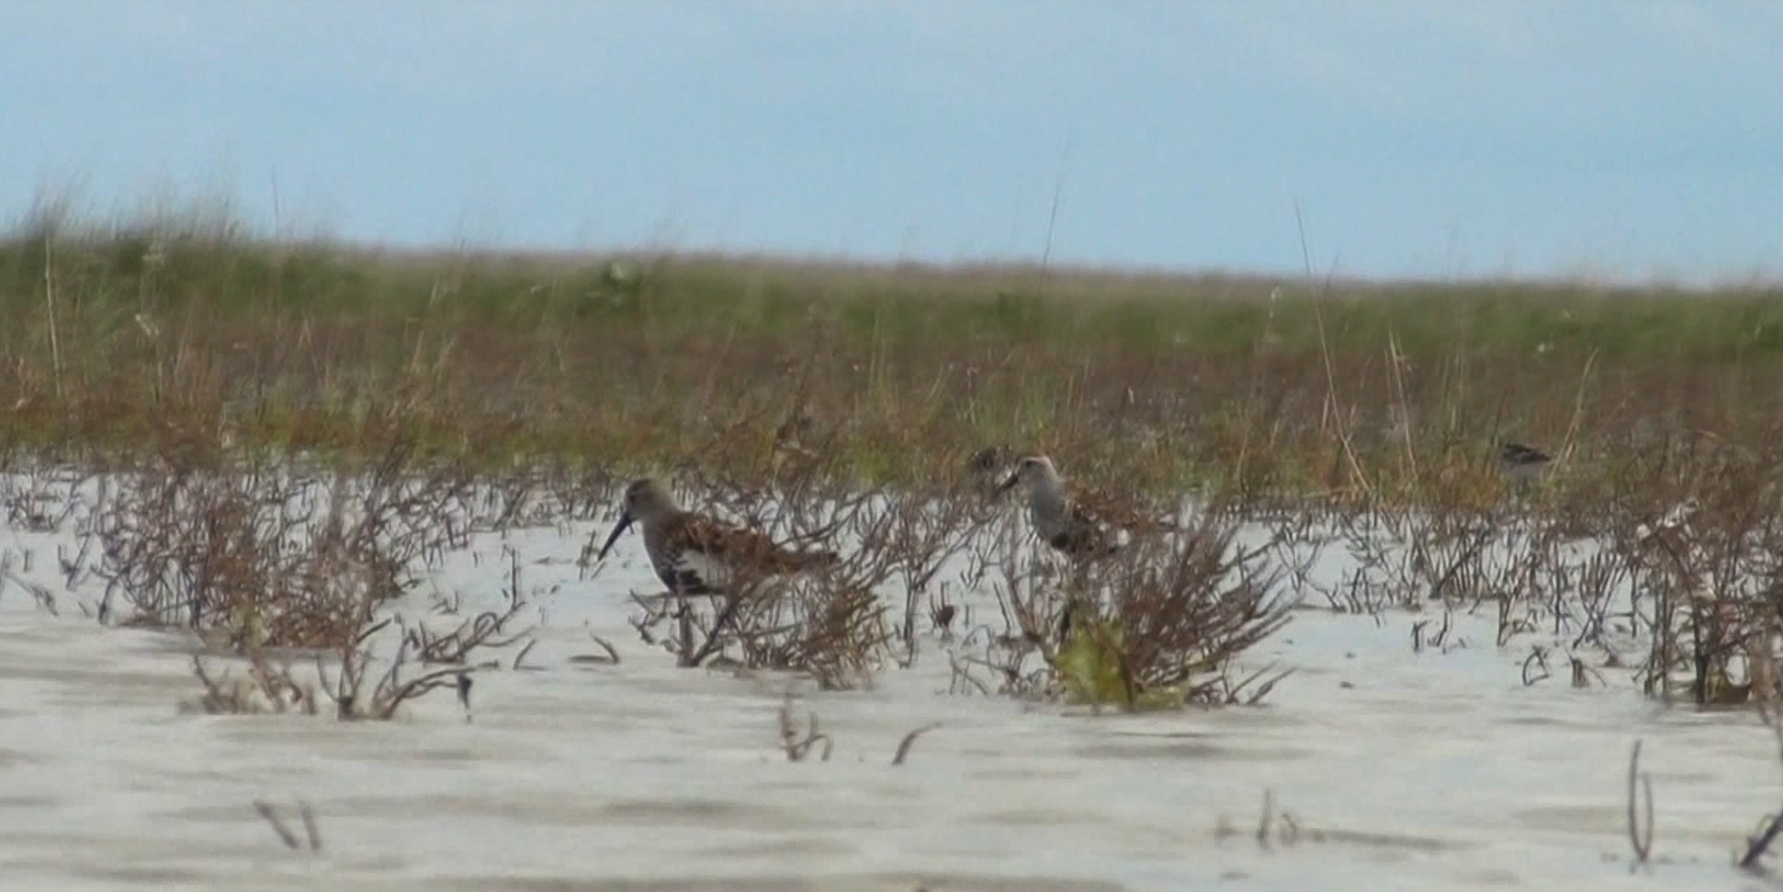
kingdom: Animalia
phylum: Chordata
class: Aves
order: Charadriiformes
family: Scolopacidae
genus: Calidris
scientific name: Calidris alpina
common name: Dunlin
